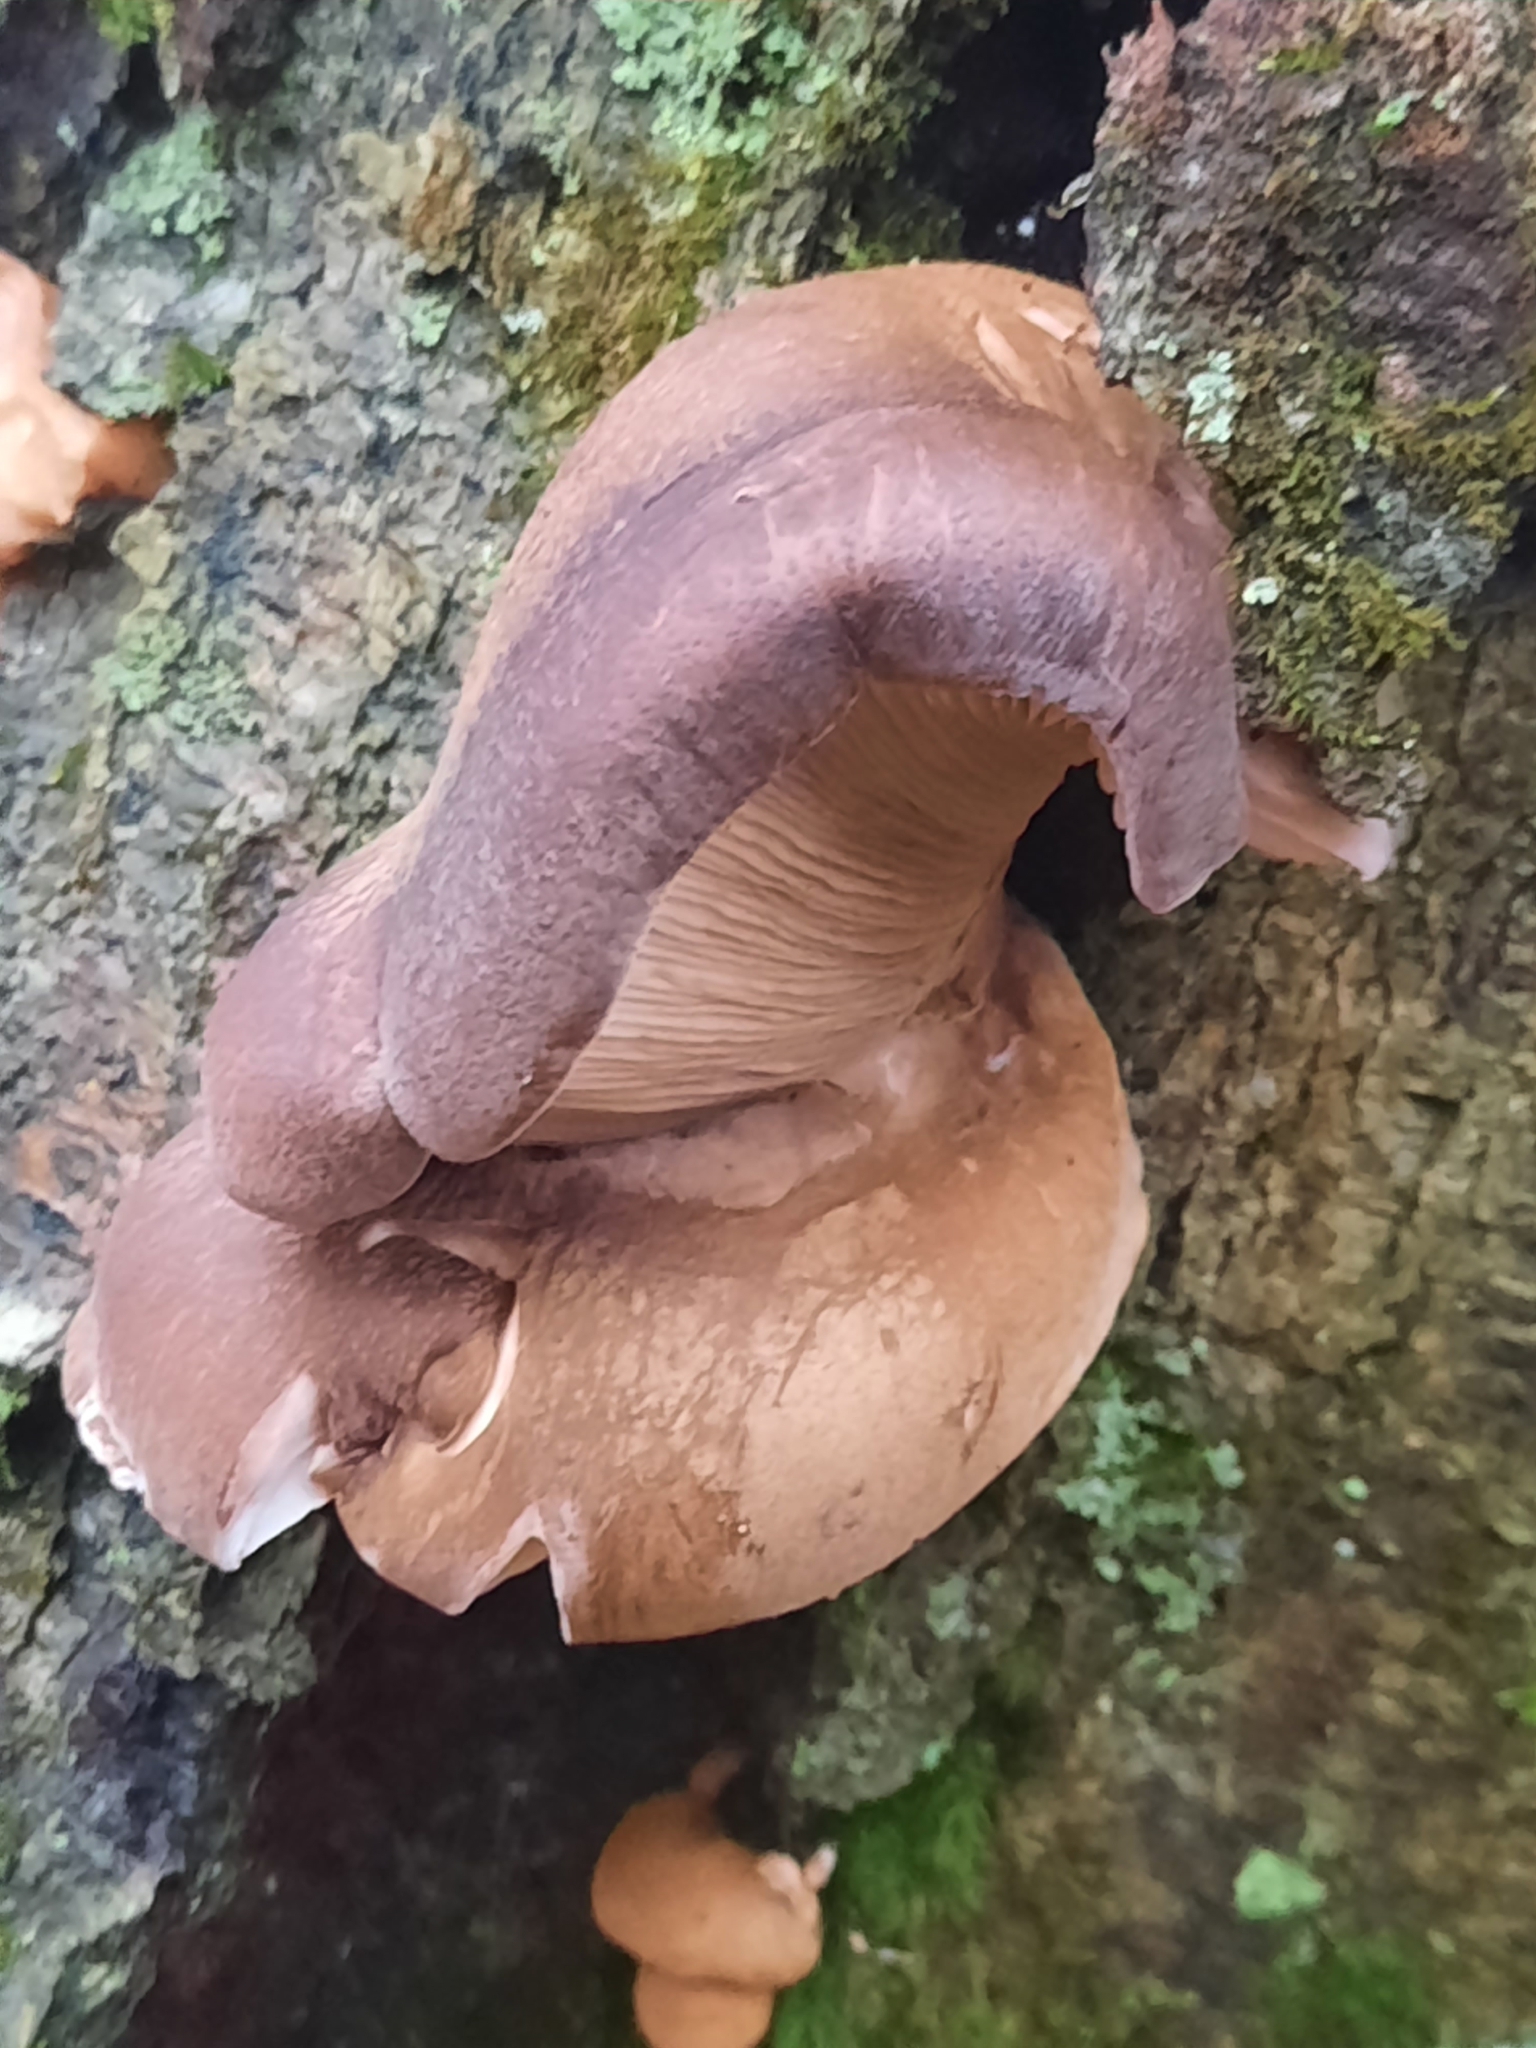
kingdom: Fungi
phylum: Basidiomycota
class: Agaricomycetes
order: Agaricales
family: Sarcomyxaceae
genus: Sarcomyxa
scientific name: Sarcomyxa serotina
